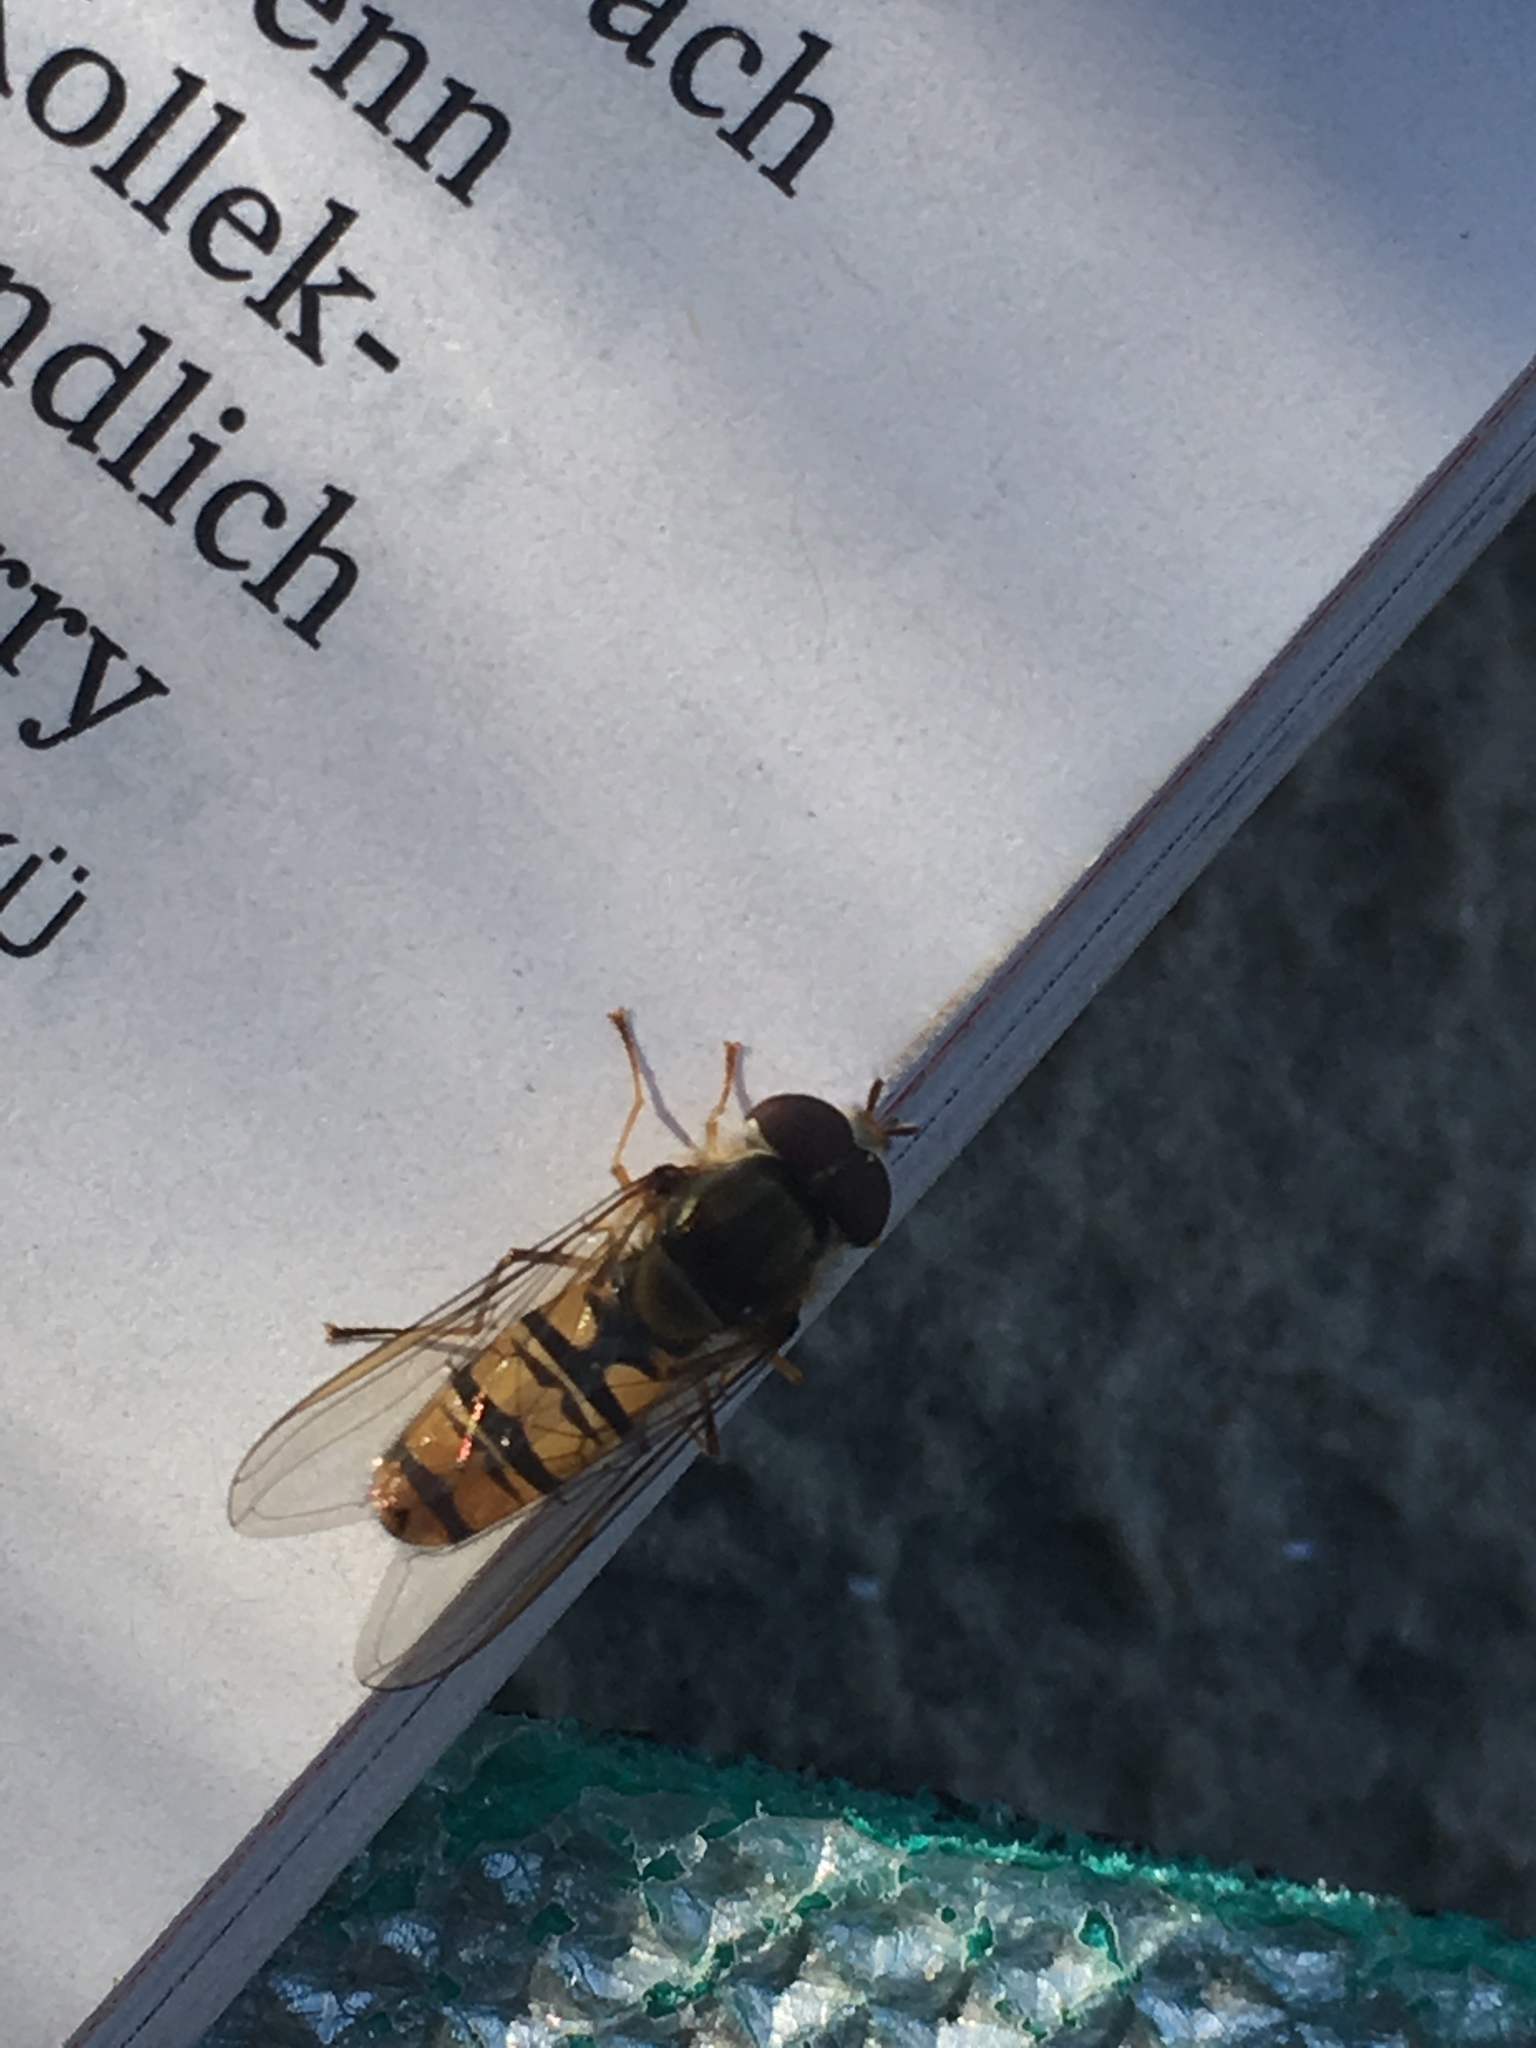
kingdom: Animalia
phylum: Arthropoda
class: Insecta
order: Diptera
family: Syrphidae
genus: Episyrphus
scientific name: Episyrphus balteatus
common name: Marmalade hoverfly
